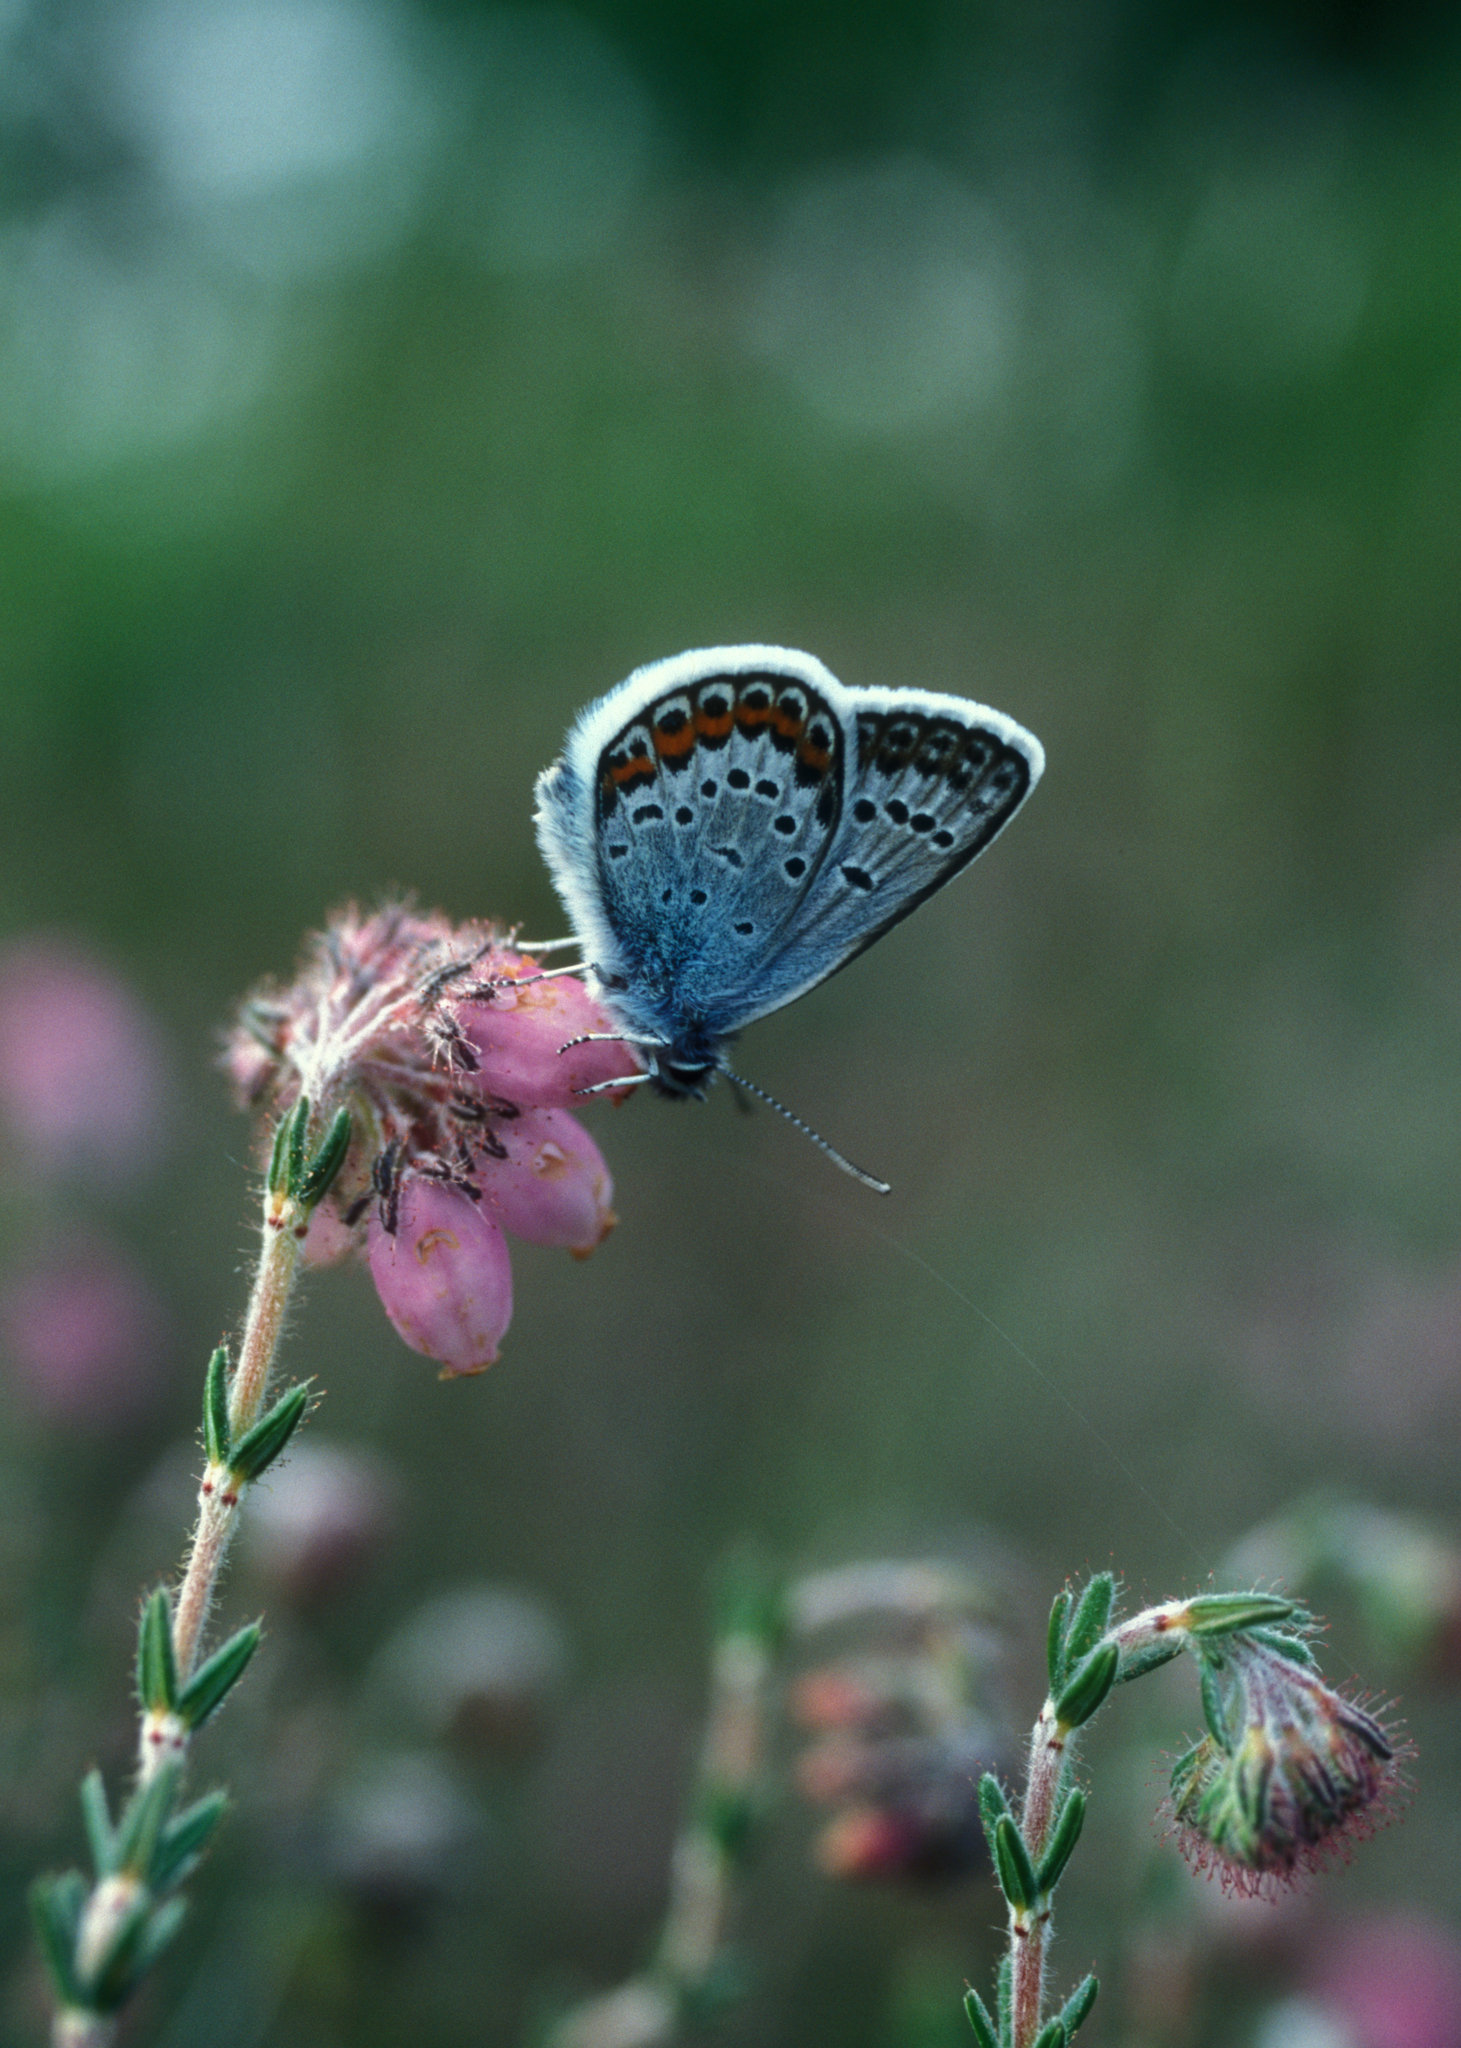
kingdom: Animalia
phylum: Arthropoda
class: Insecta
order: Lepidoptera
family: Lycaenidae
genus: Plebejus
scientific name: Plebejus argus
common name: Silver-studded blue
